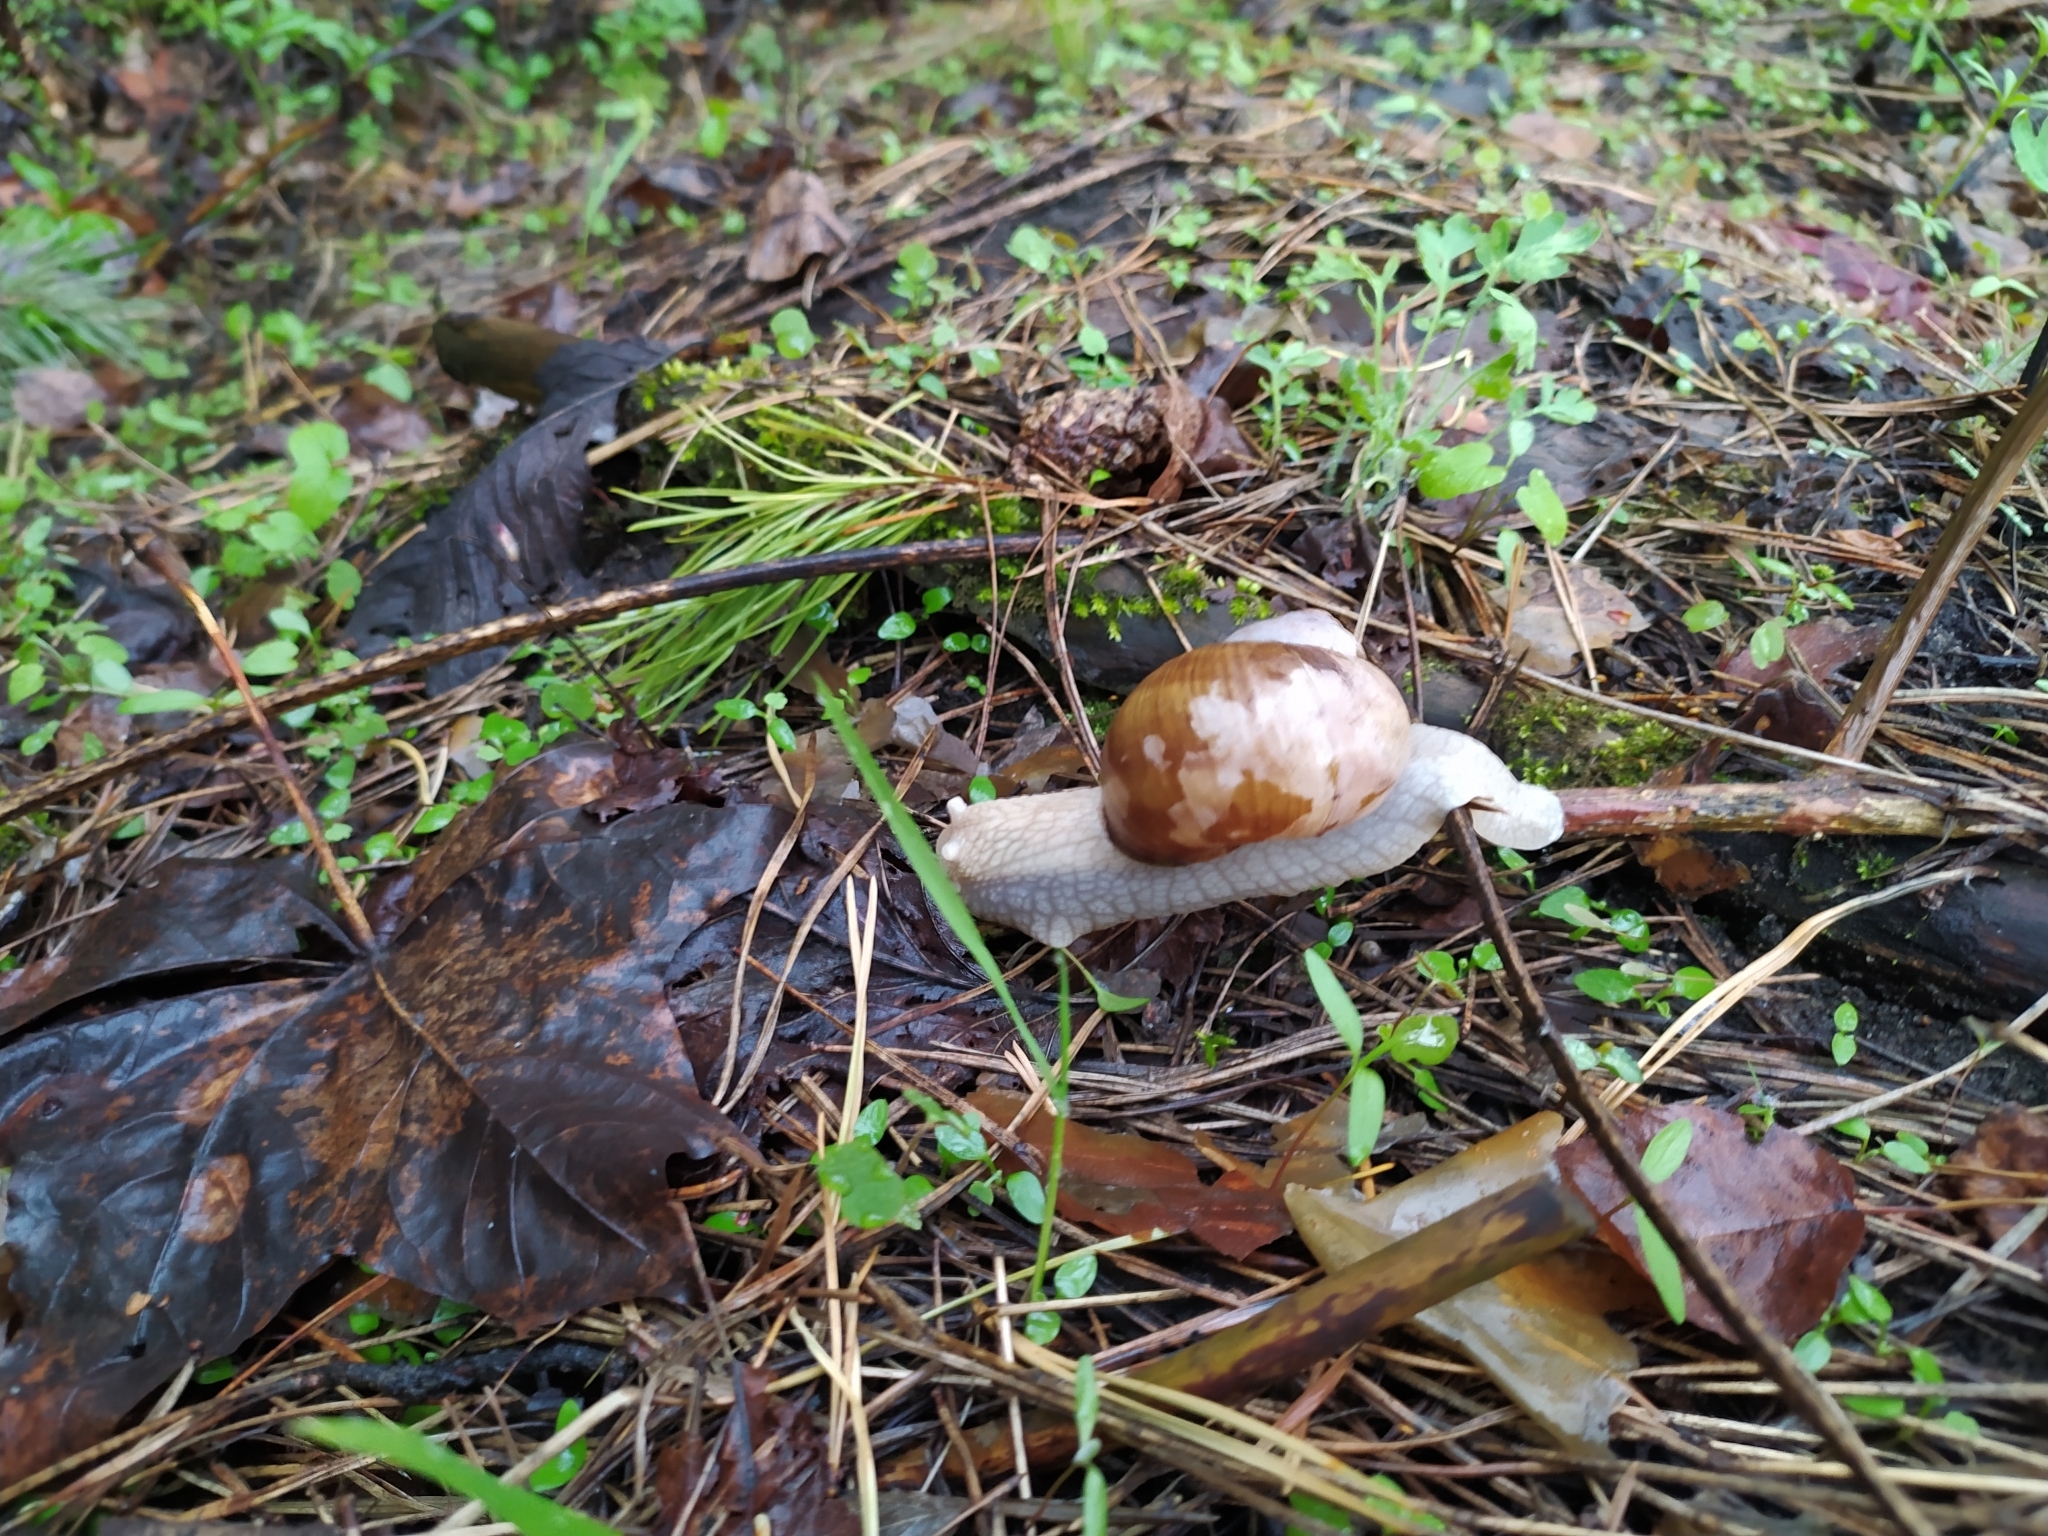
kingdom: Animalia
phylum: Mollusca
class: Gastropoda
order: Stylommatophora
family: Helicidae
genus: Helix
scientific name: Helix pomatia
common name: Roman snail
